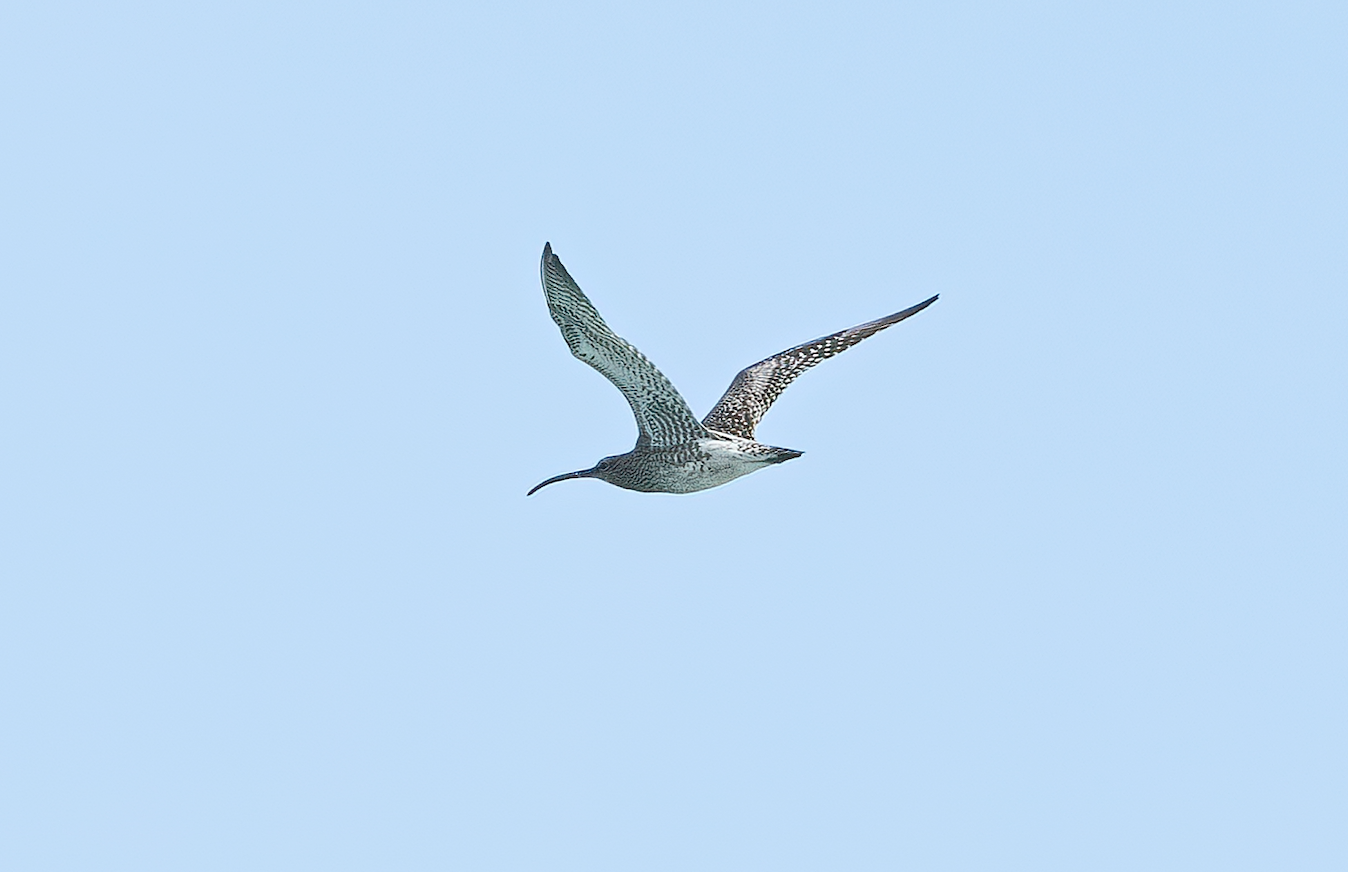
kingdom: Animalia
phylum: Chordata
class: Aves
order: Charadriiformes
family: Scolopacidae
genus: Numenius
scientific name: Numenius phaeopus
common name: Whimbrel
